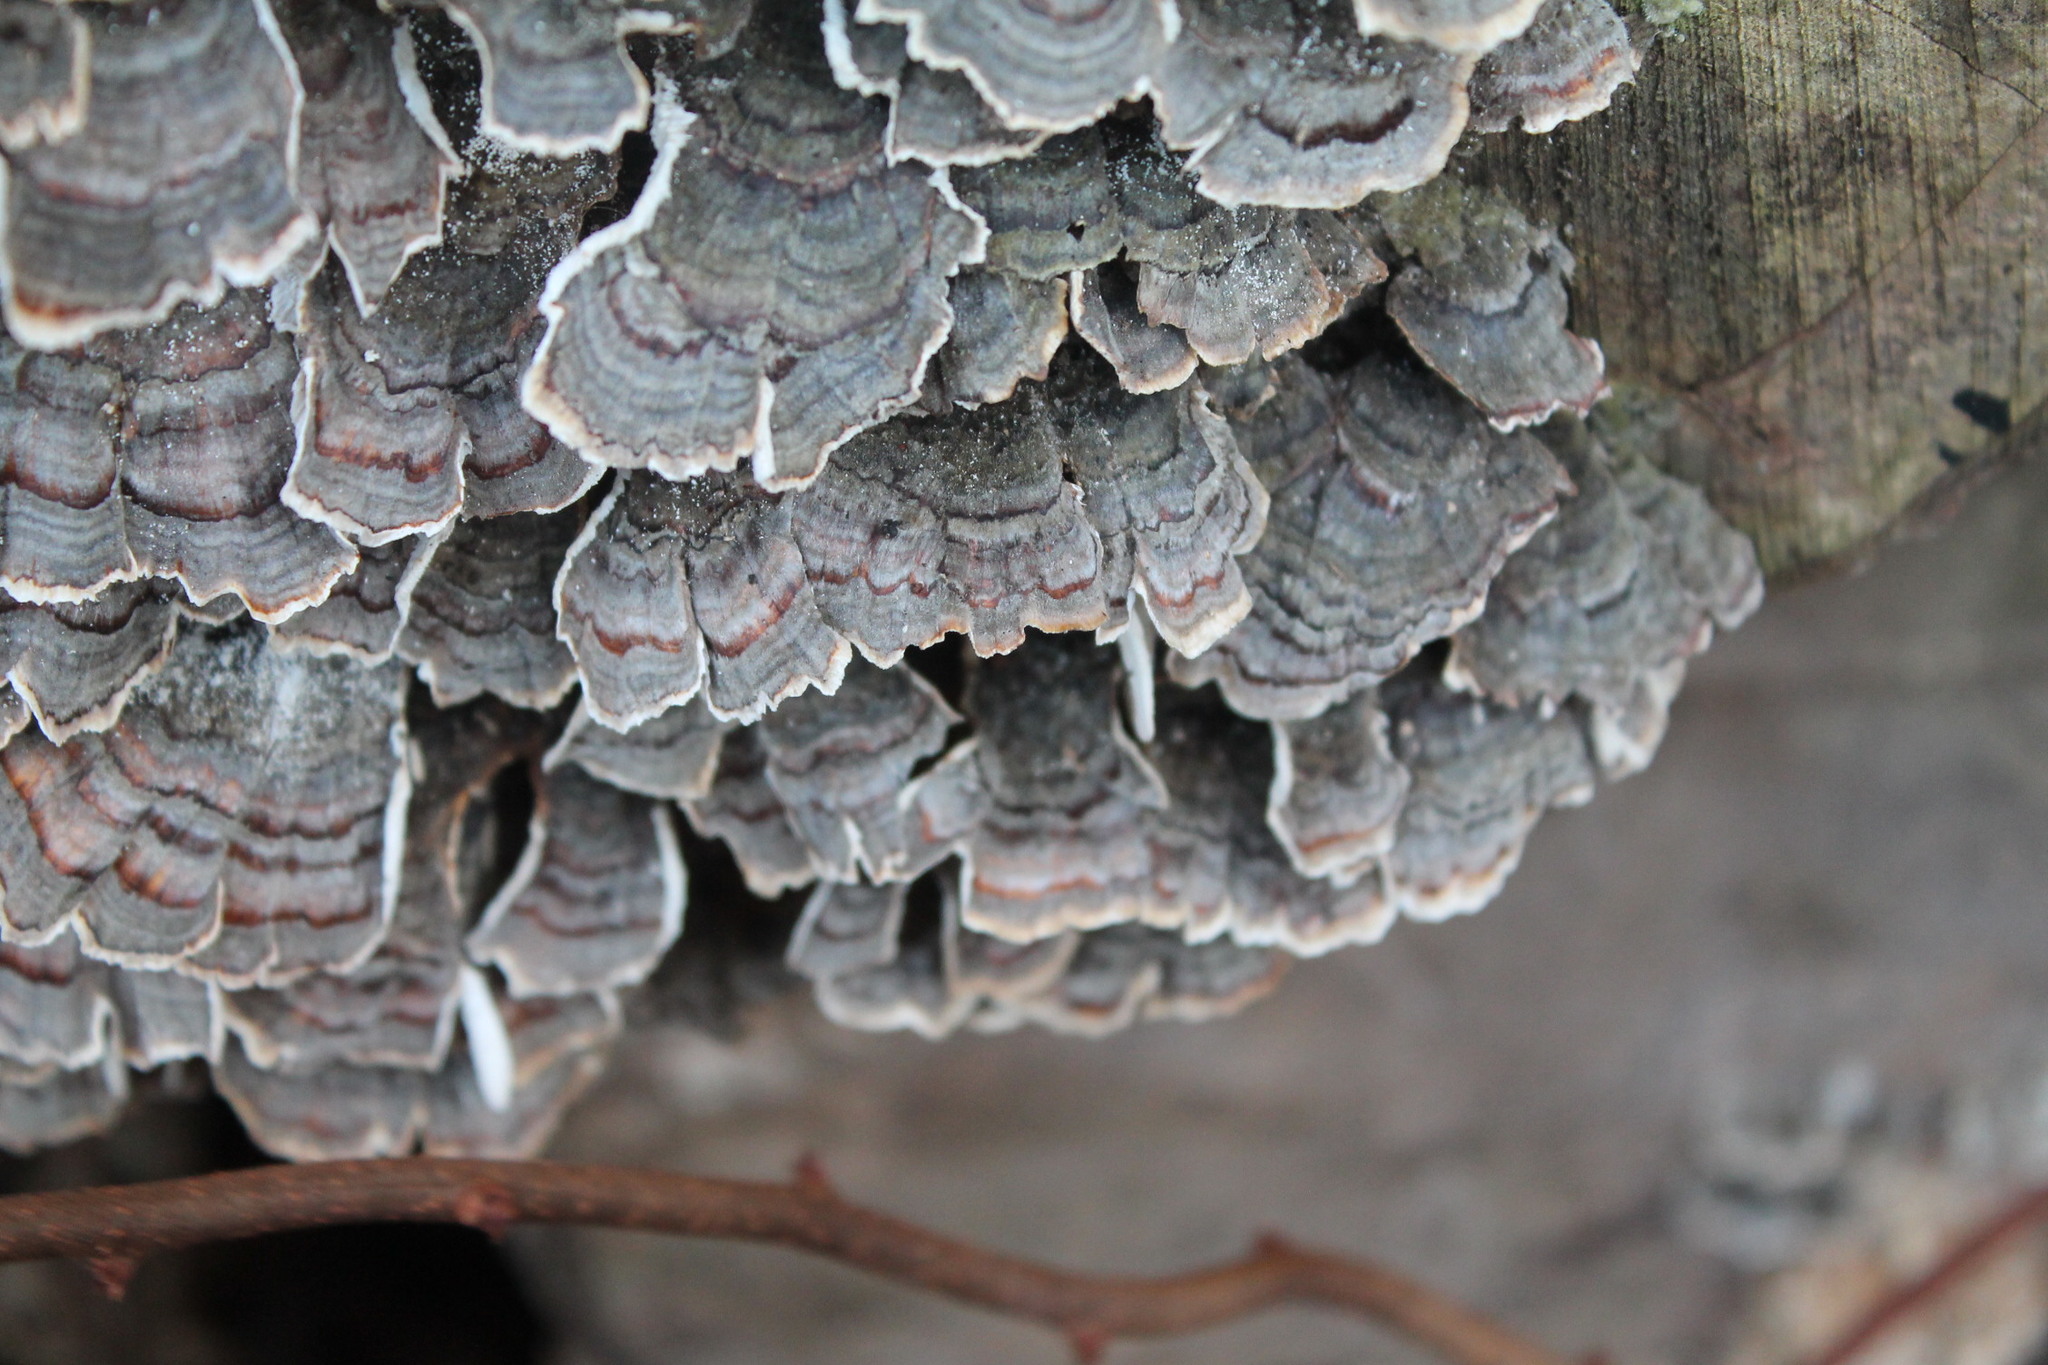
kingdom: Fungi
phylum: Basidiomycota
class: Agaricomycetes
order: Polyporales
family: Polyporaceae
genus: Trametes
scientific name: Trametes versicolor
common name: Turkeytail
